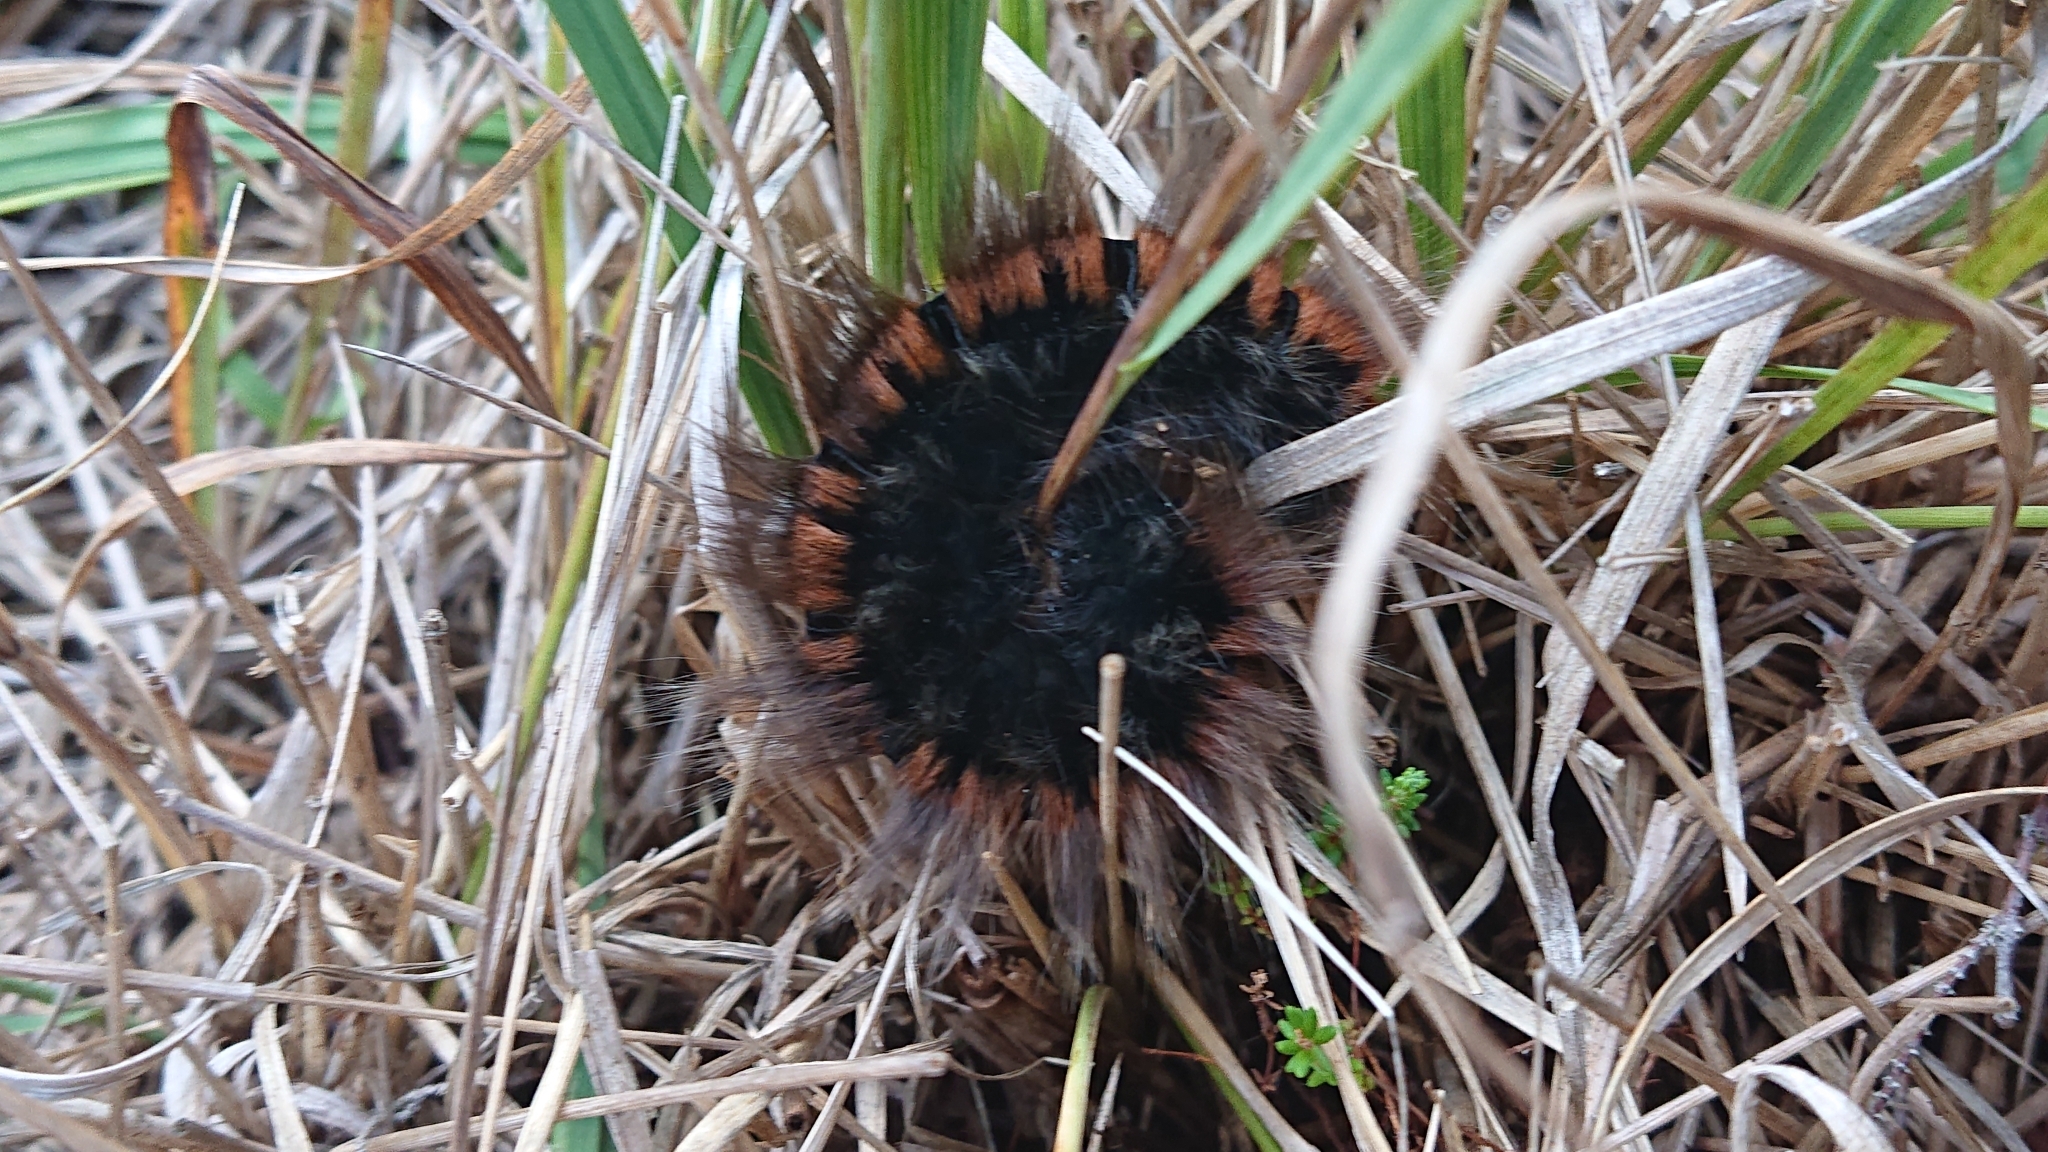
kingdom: Animalia
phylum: Arthropoda
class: Insecta
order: Lepidoptera
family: Lasiocampidae
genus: Macrothylacia
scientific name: Macrothylacia rubi
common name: Fox moth
